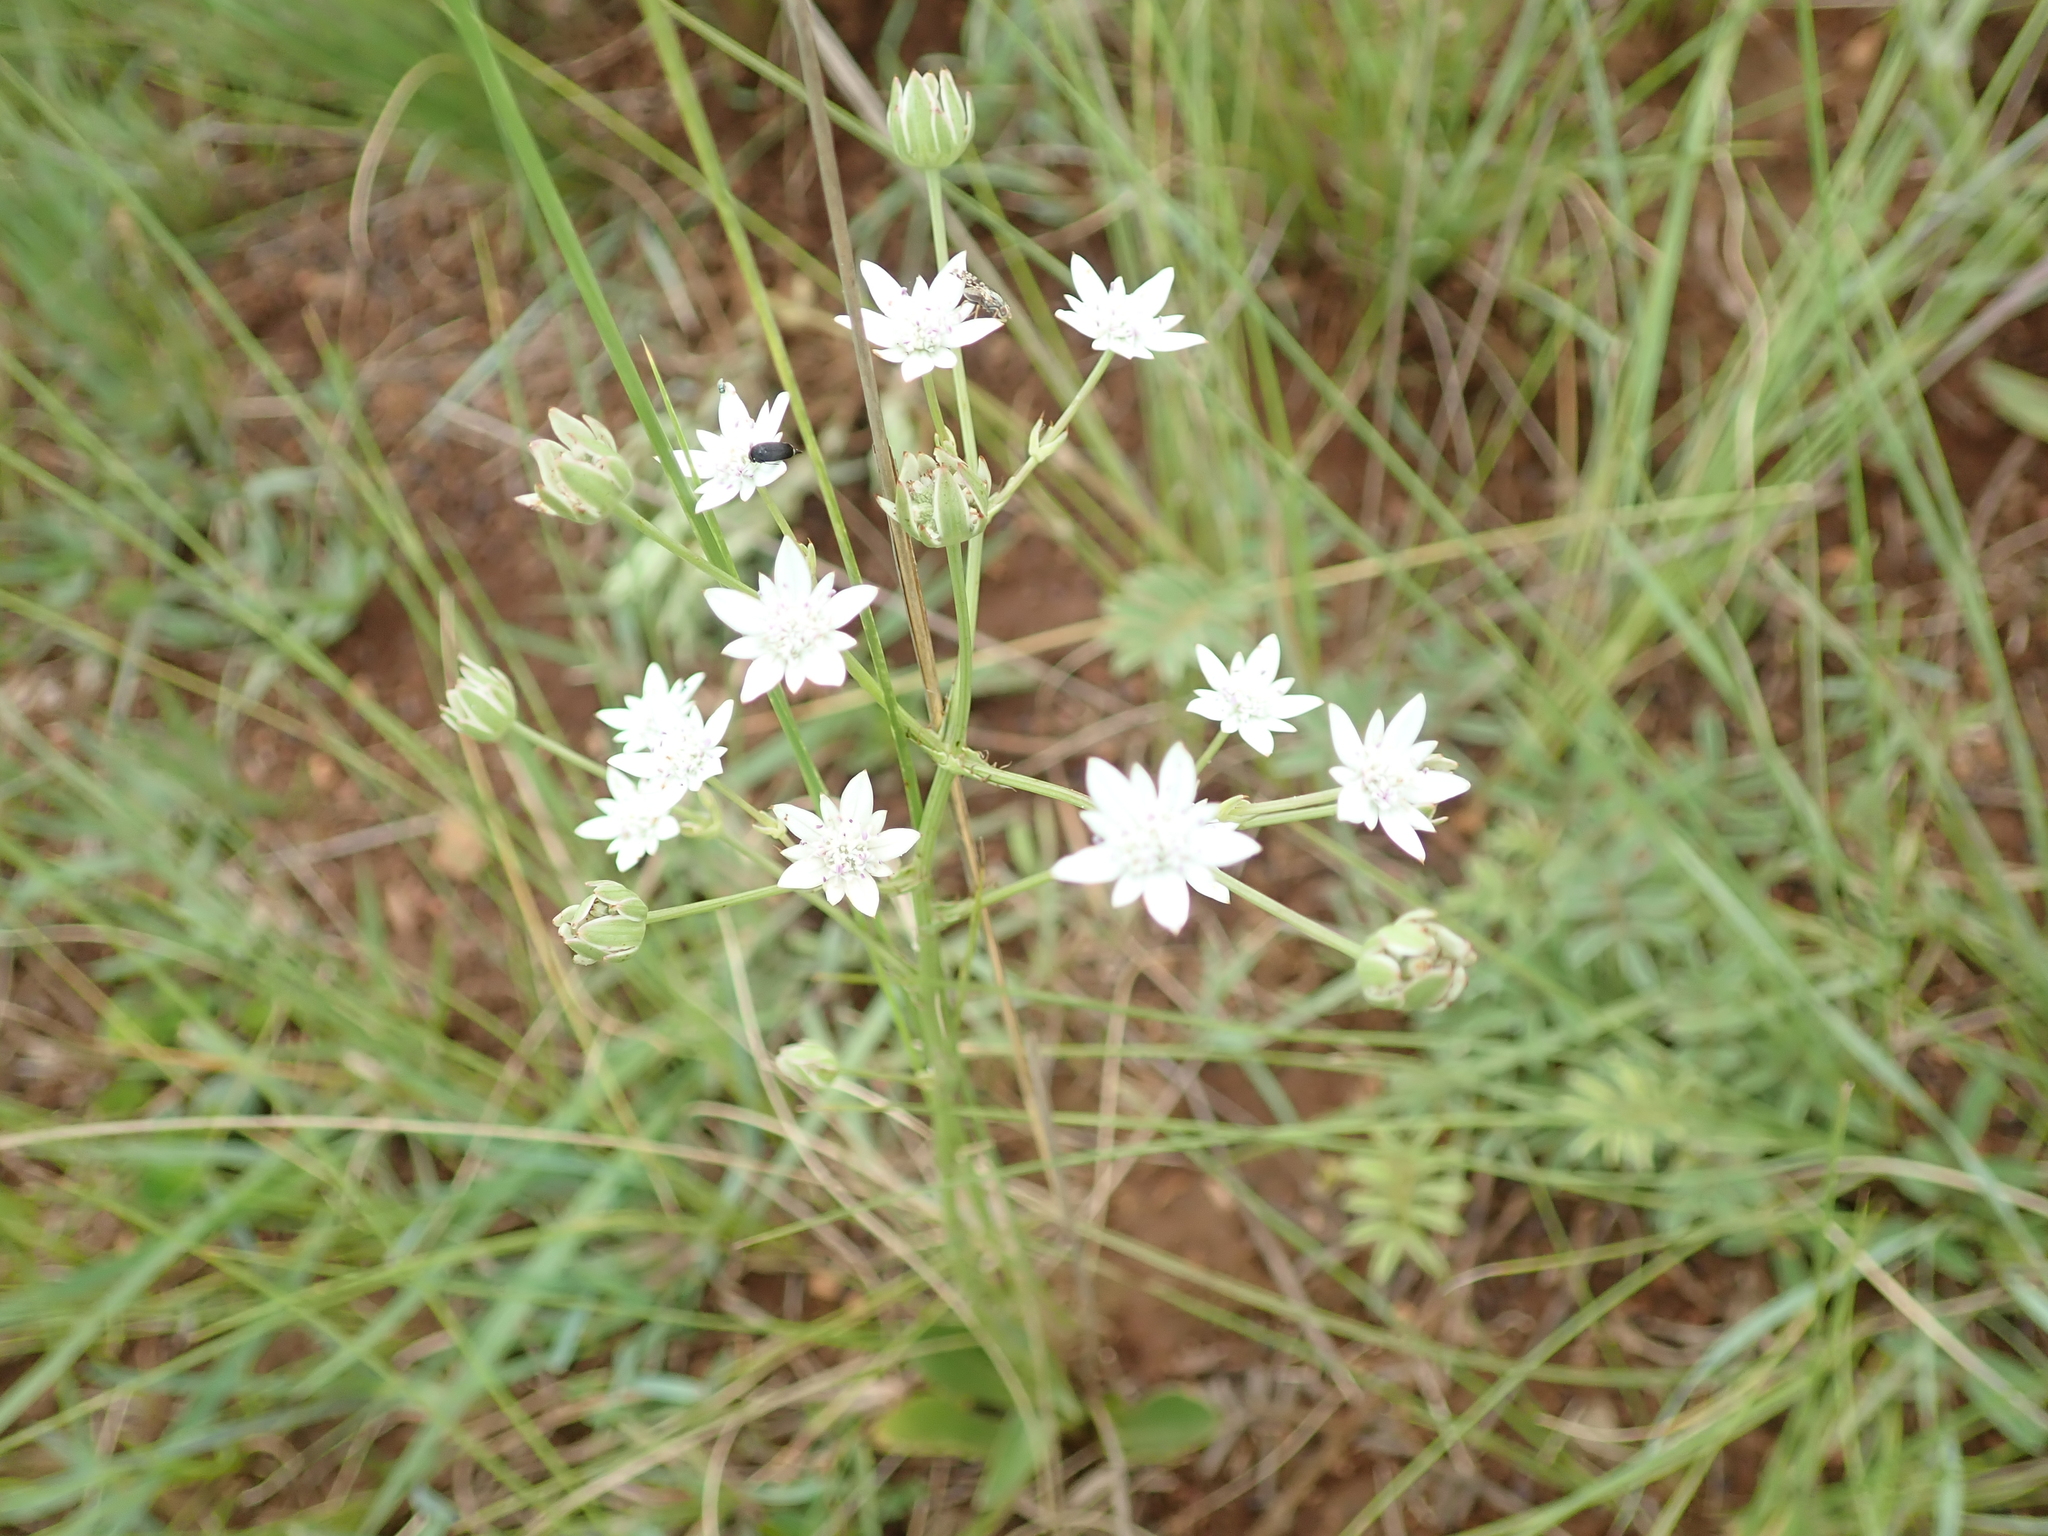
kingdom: Plantae
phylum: Tracheophyta
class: Magnoliopsida
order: Apiales
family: Apiaceae
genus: Alepidea
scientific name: Alepidea peduncularis
